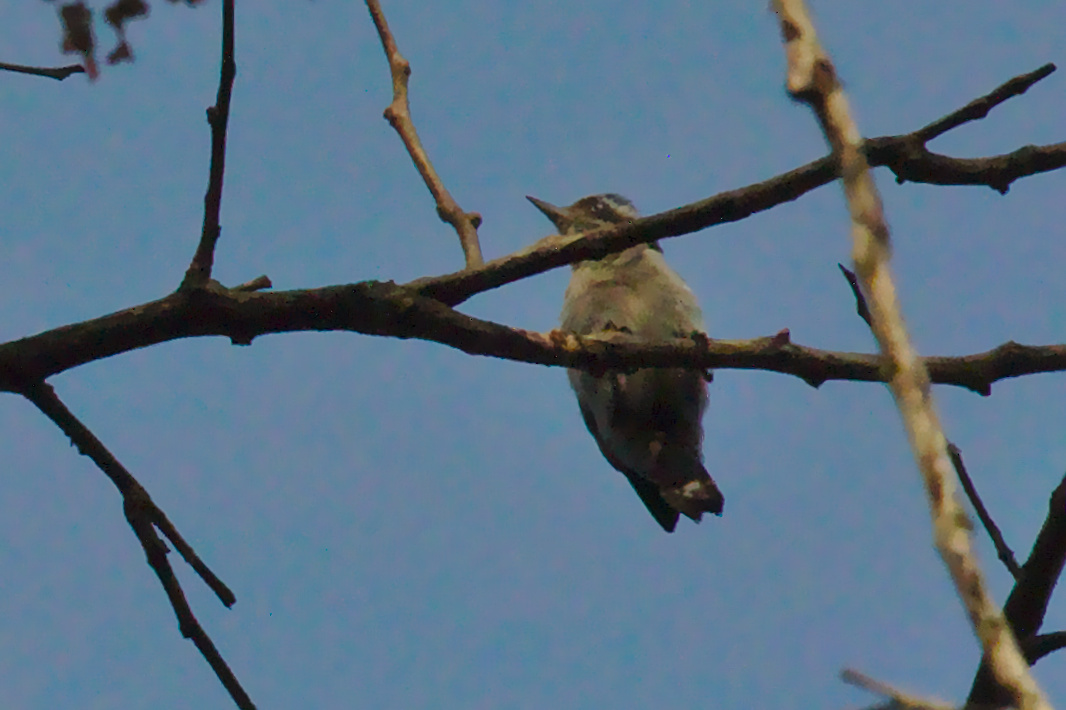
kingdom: Animalia
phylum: Chordata
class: Aves
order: Piciformes
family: Picidae
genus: Yungipicus
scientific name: Yungipicus nanus
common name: Brown-capped pygmy woodpecker
